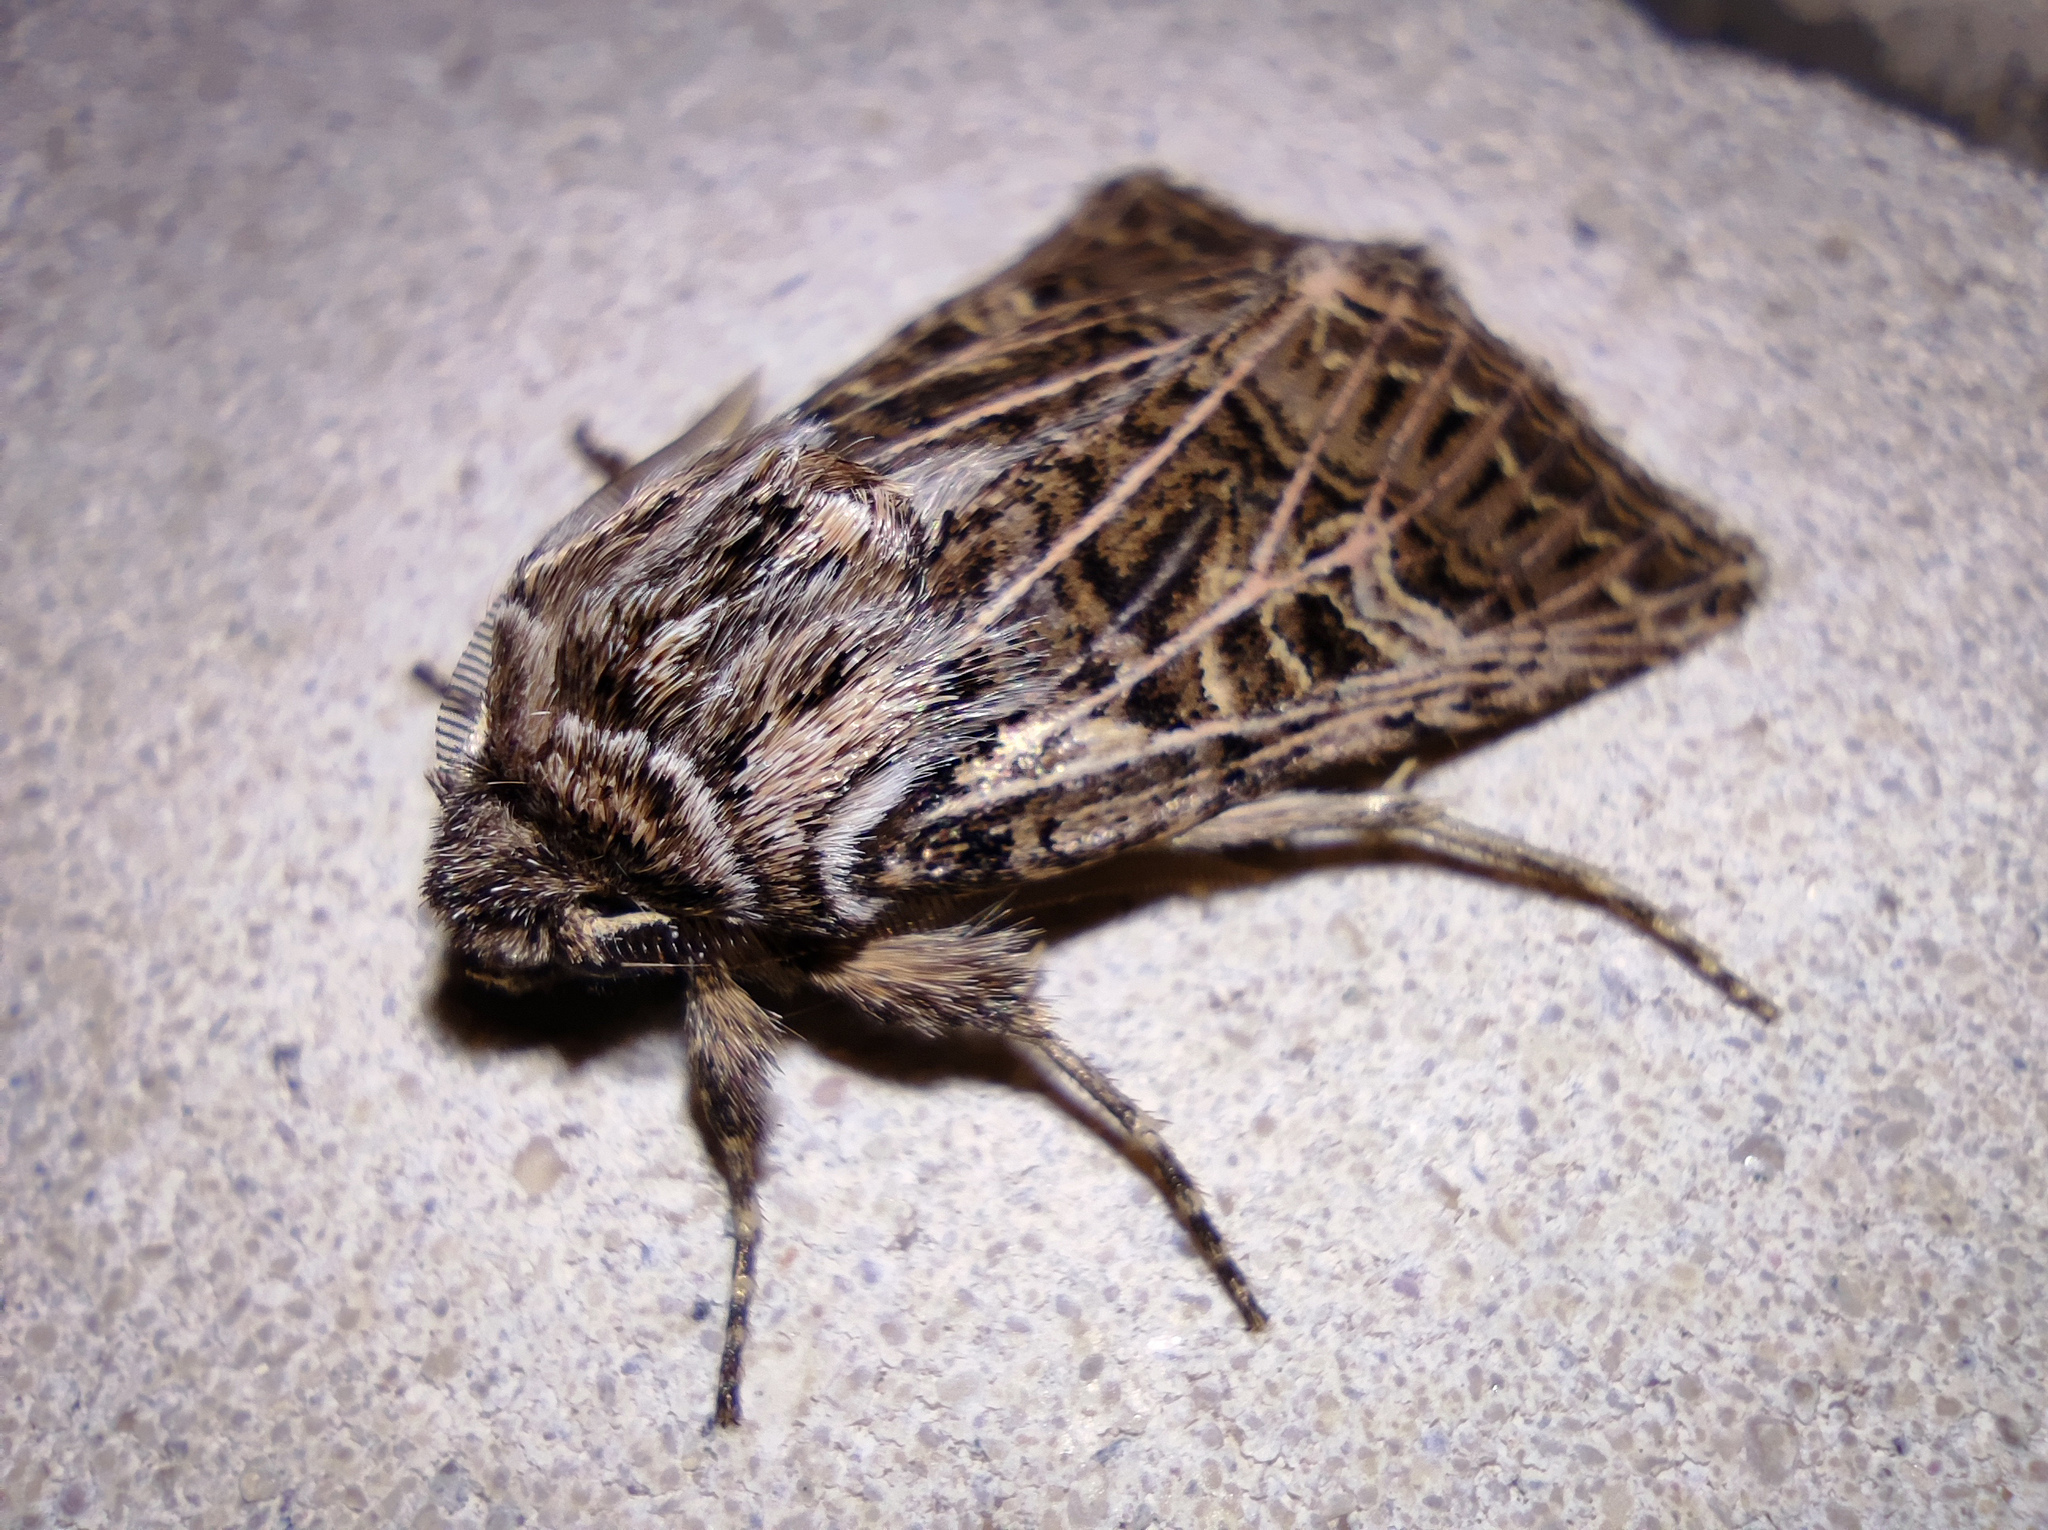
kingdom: Animalia
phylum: Arthropoda
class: Insecta
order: Lepidoptera
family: Noctuidae
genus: Tholera
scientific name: Tholera decimalis
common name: Feathered gothic
